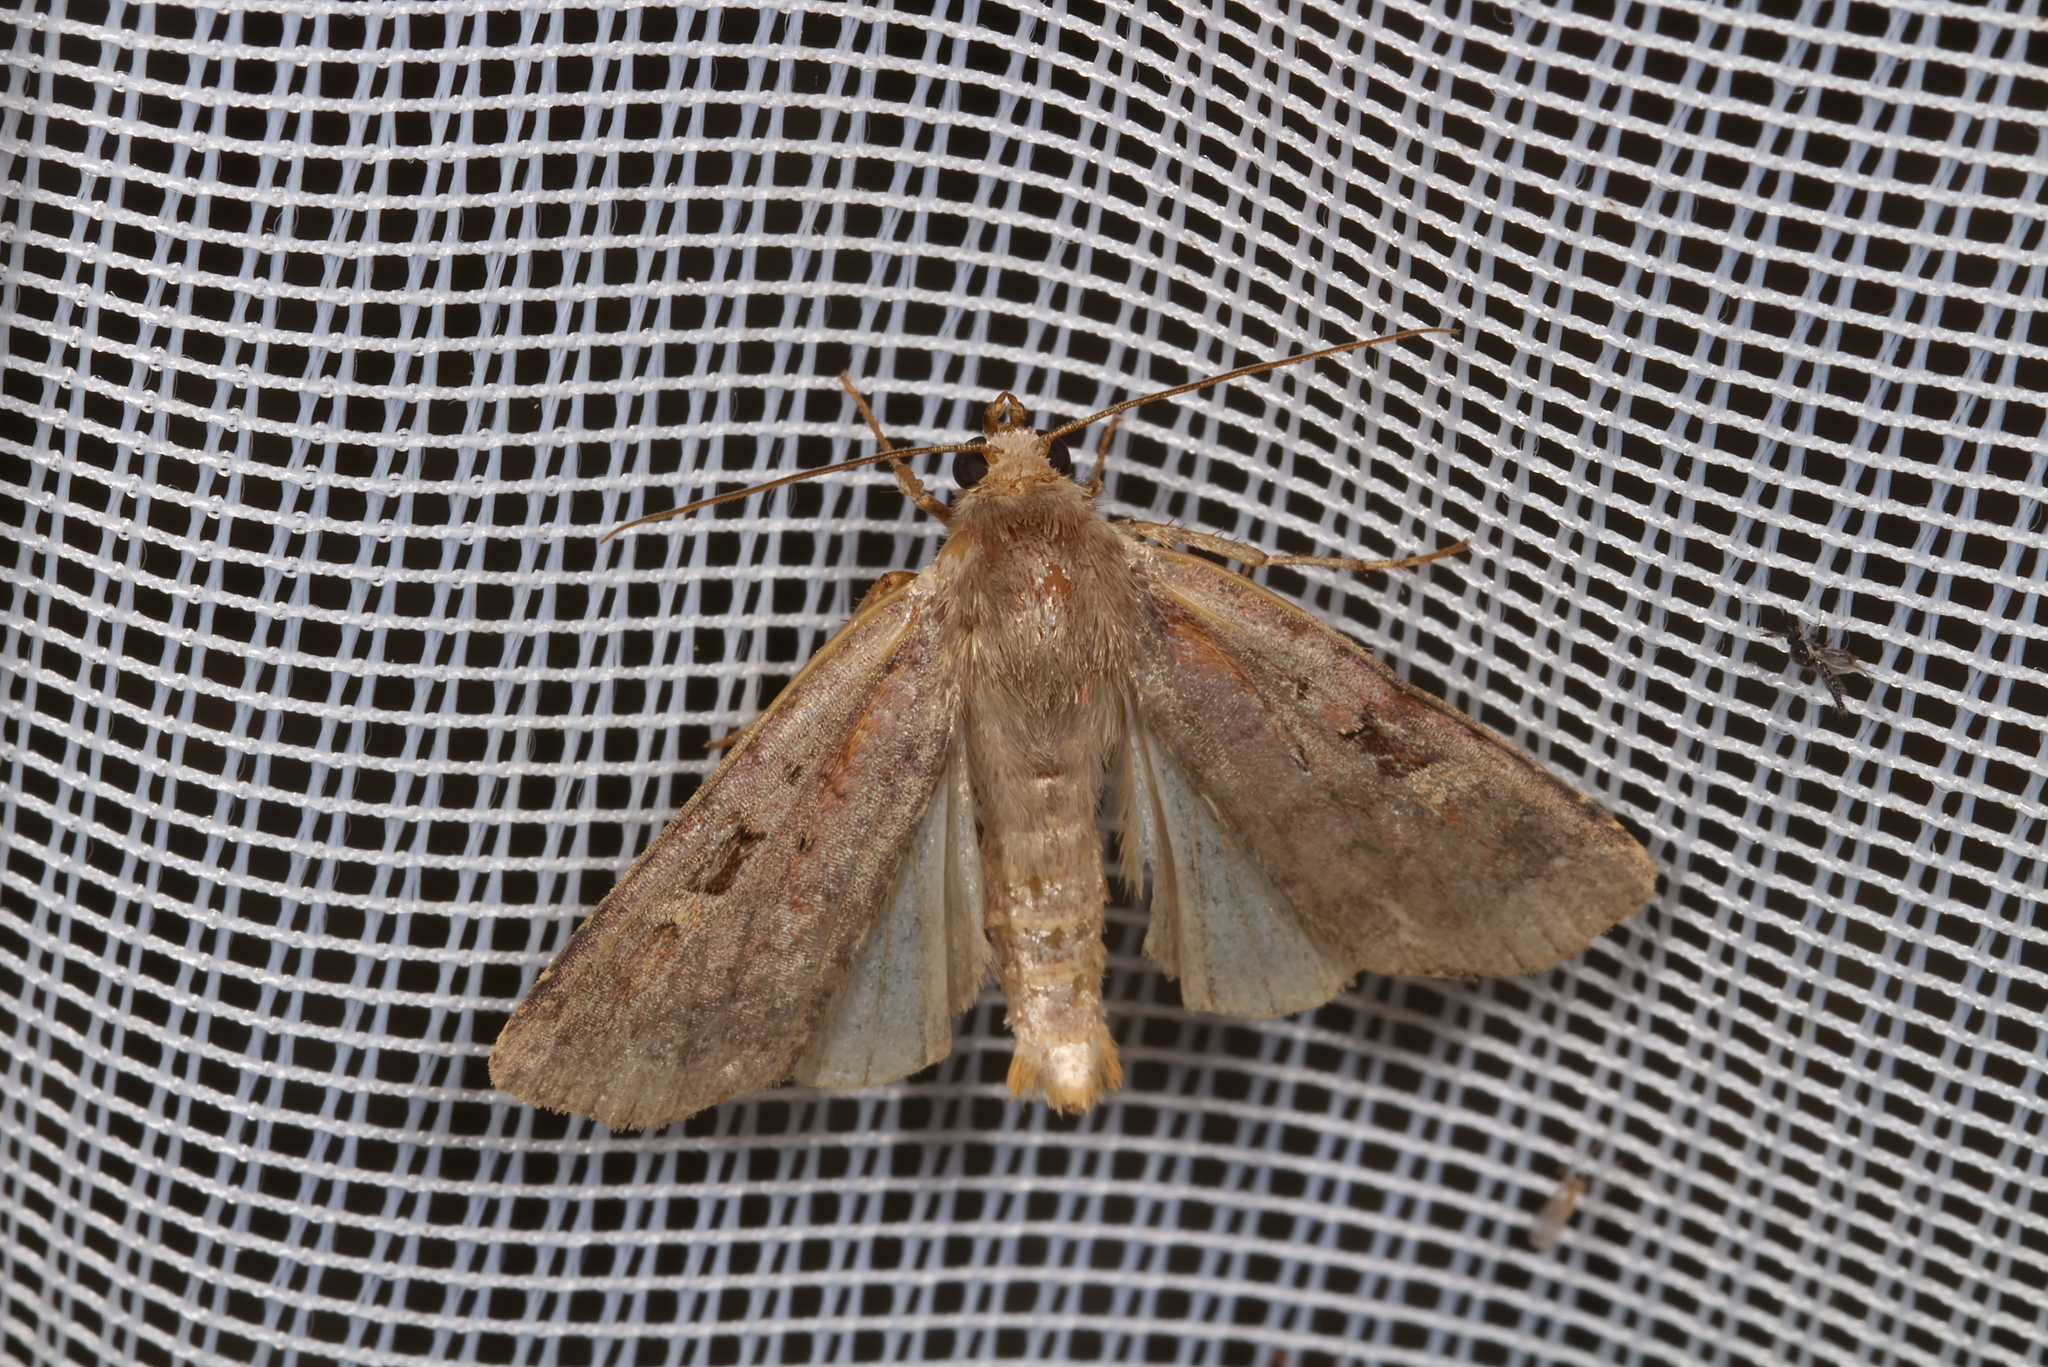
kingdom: Animalia
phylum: Arthropoda
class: Insecta
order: Lepidoptera
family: Noctuidae
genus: Diarsia
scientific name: Diarsia brunnea
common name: Purple clay
